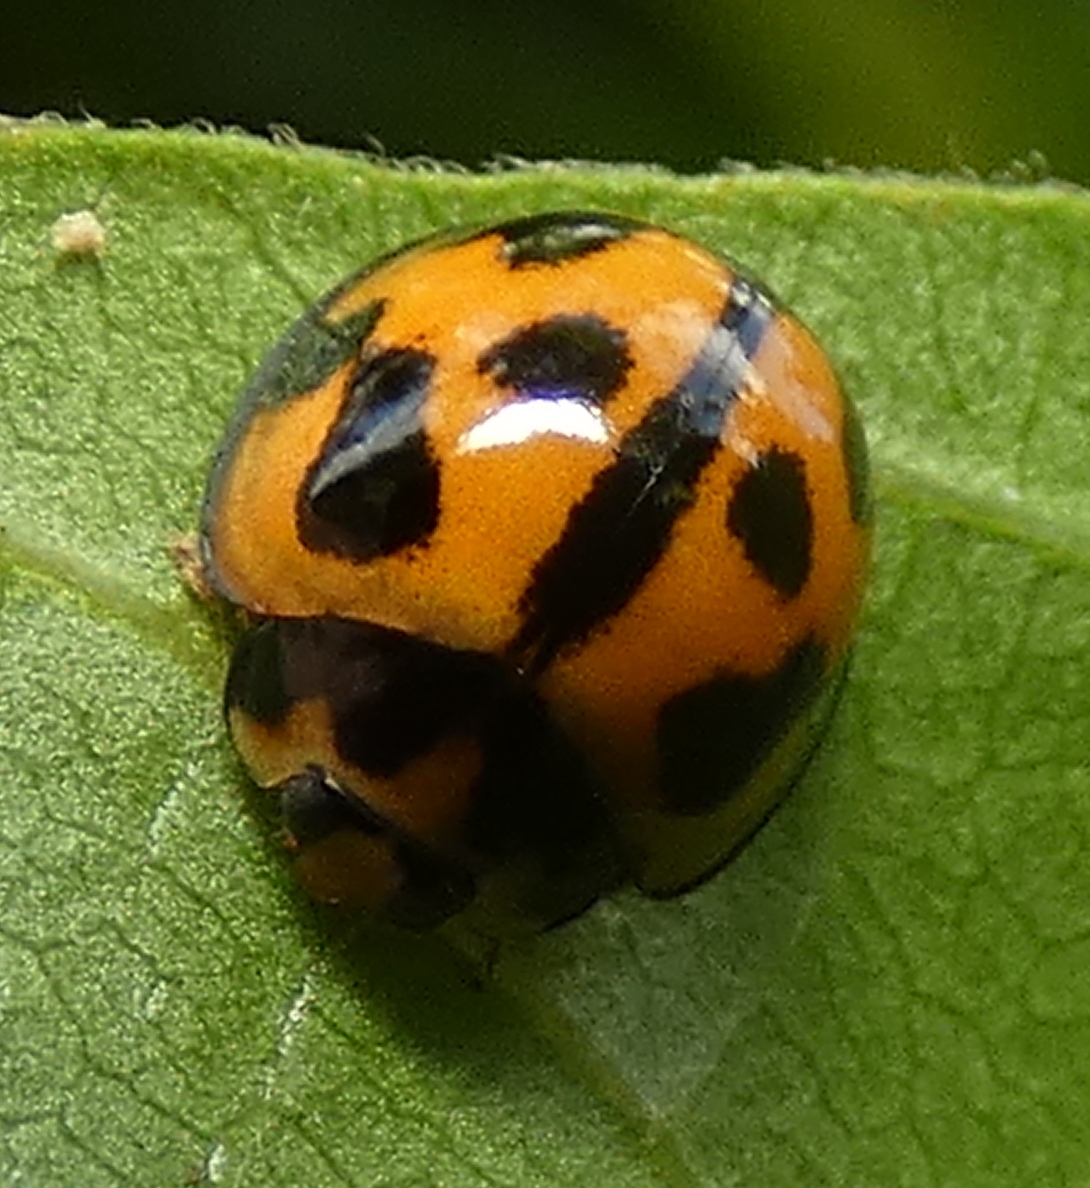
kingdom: Animalia
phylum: Arthropoda
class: Insecta
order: Coleoptera
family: Coccinellidae
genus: Coelophora
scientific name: Coelophora inaequalis
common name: Common australian lady beetle
